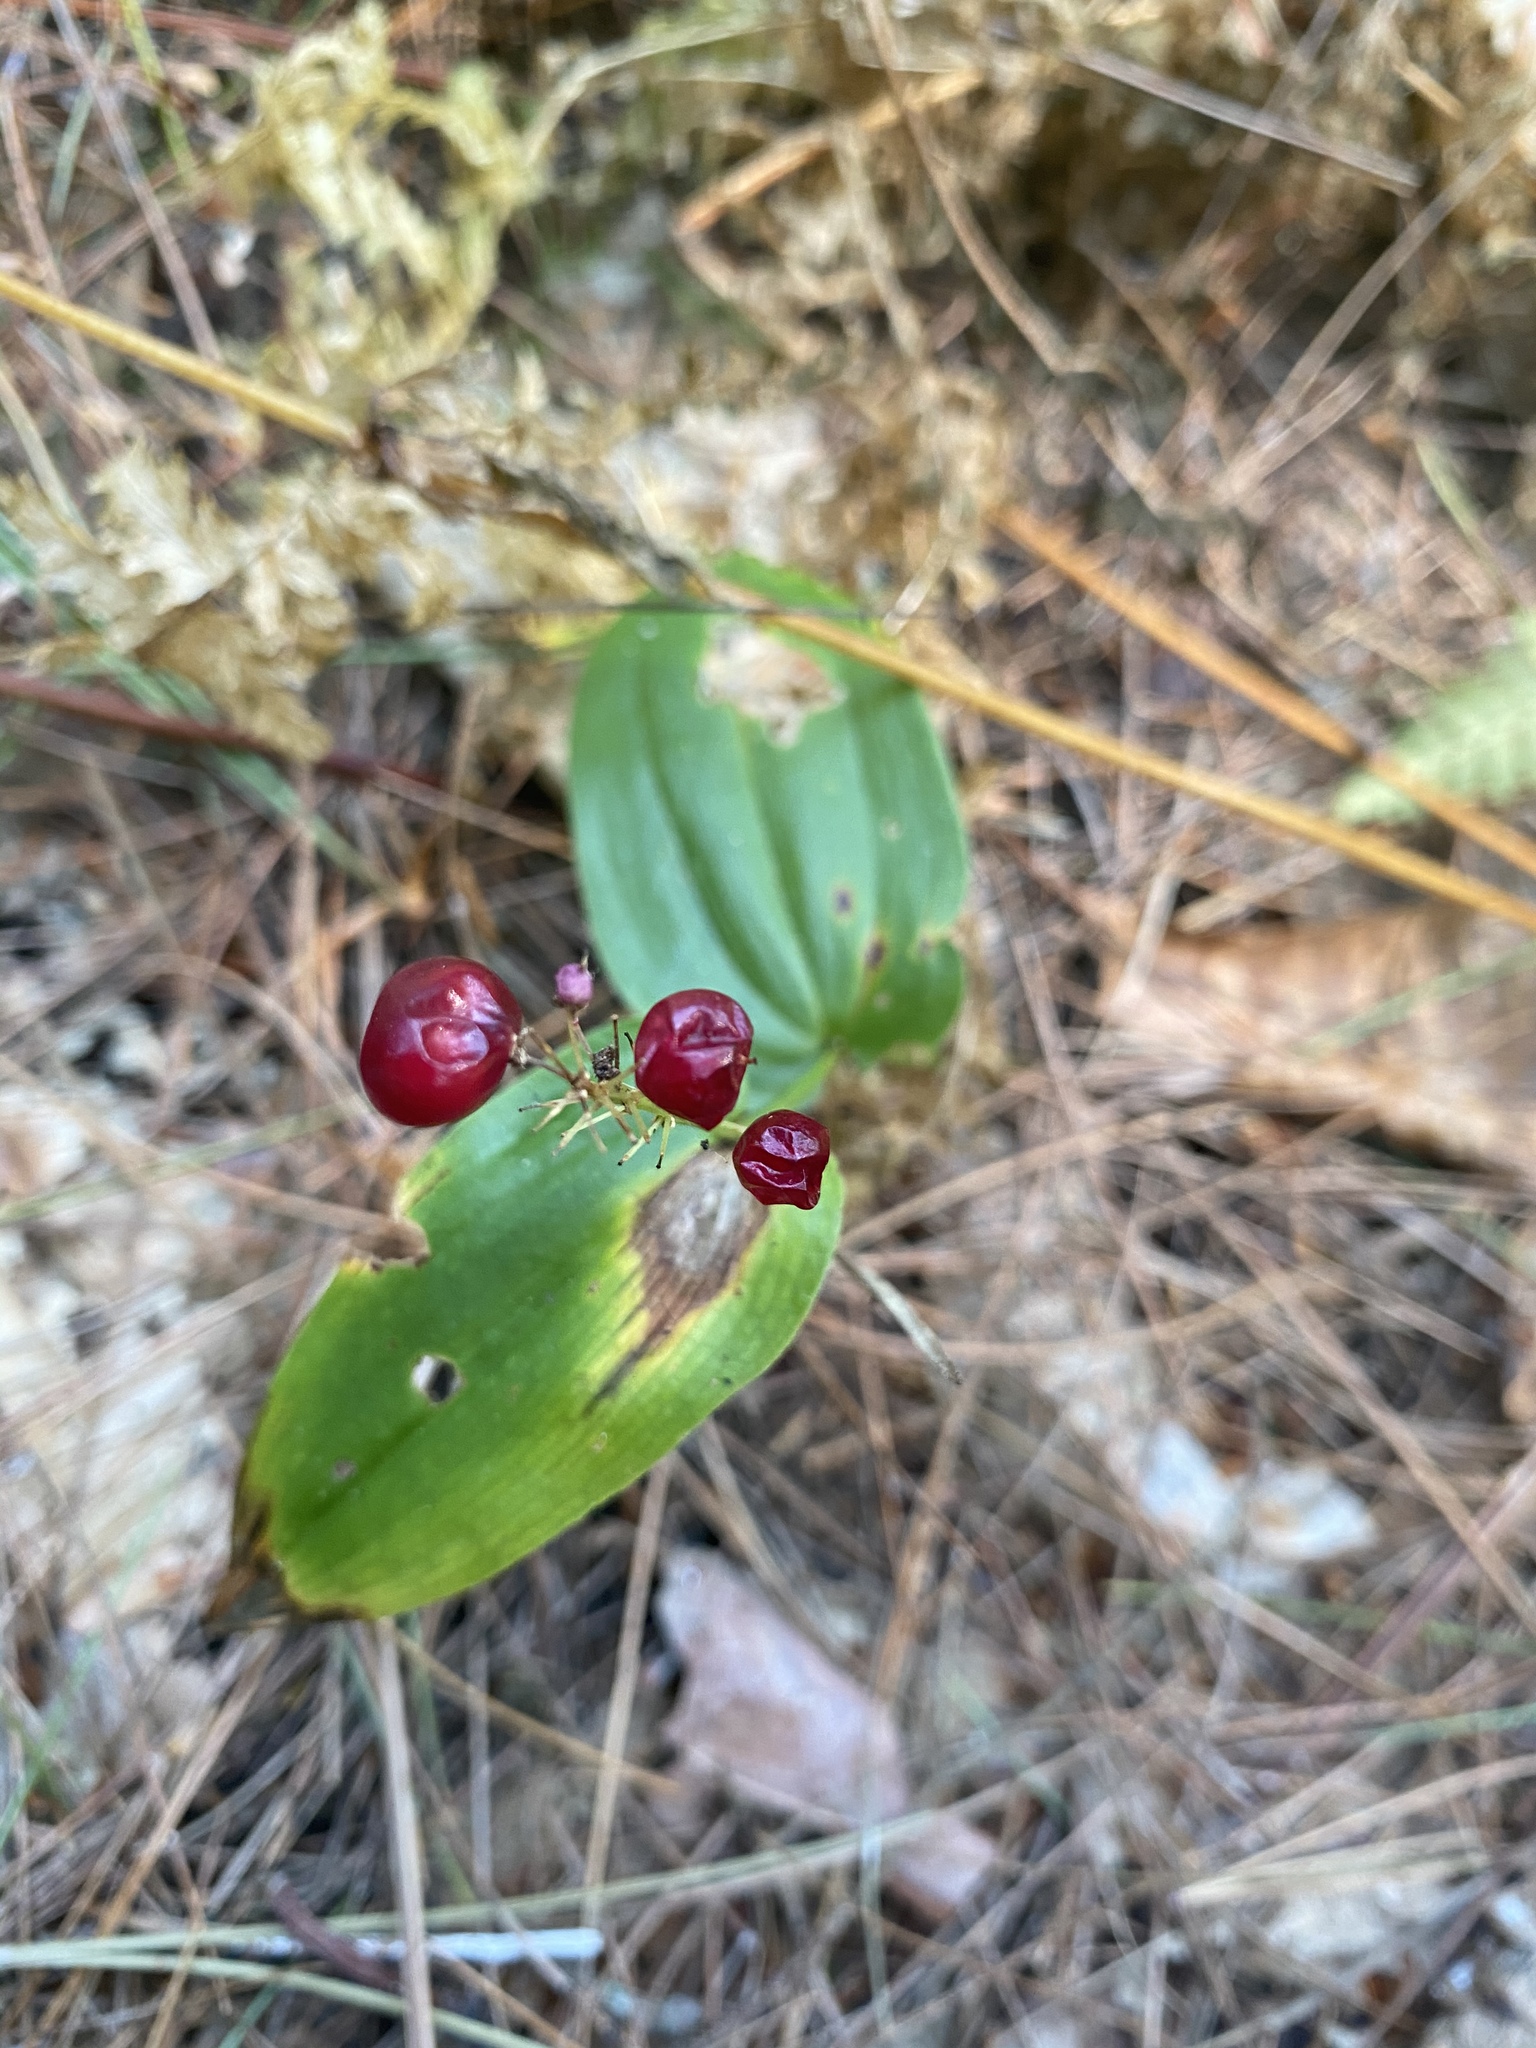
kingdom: Plantae
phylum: Tracheophyta
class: Liliopsida
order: Asparagales
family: Asparagaceae
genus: Maianthemum
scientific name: Maianthemum canadense
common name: False lily-of-the-valley
